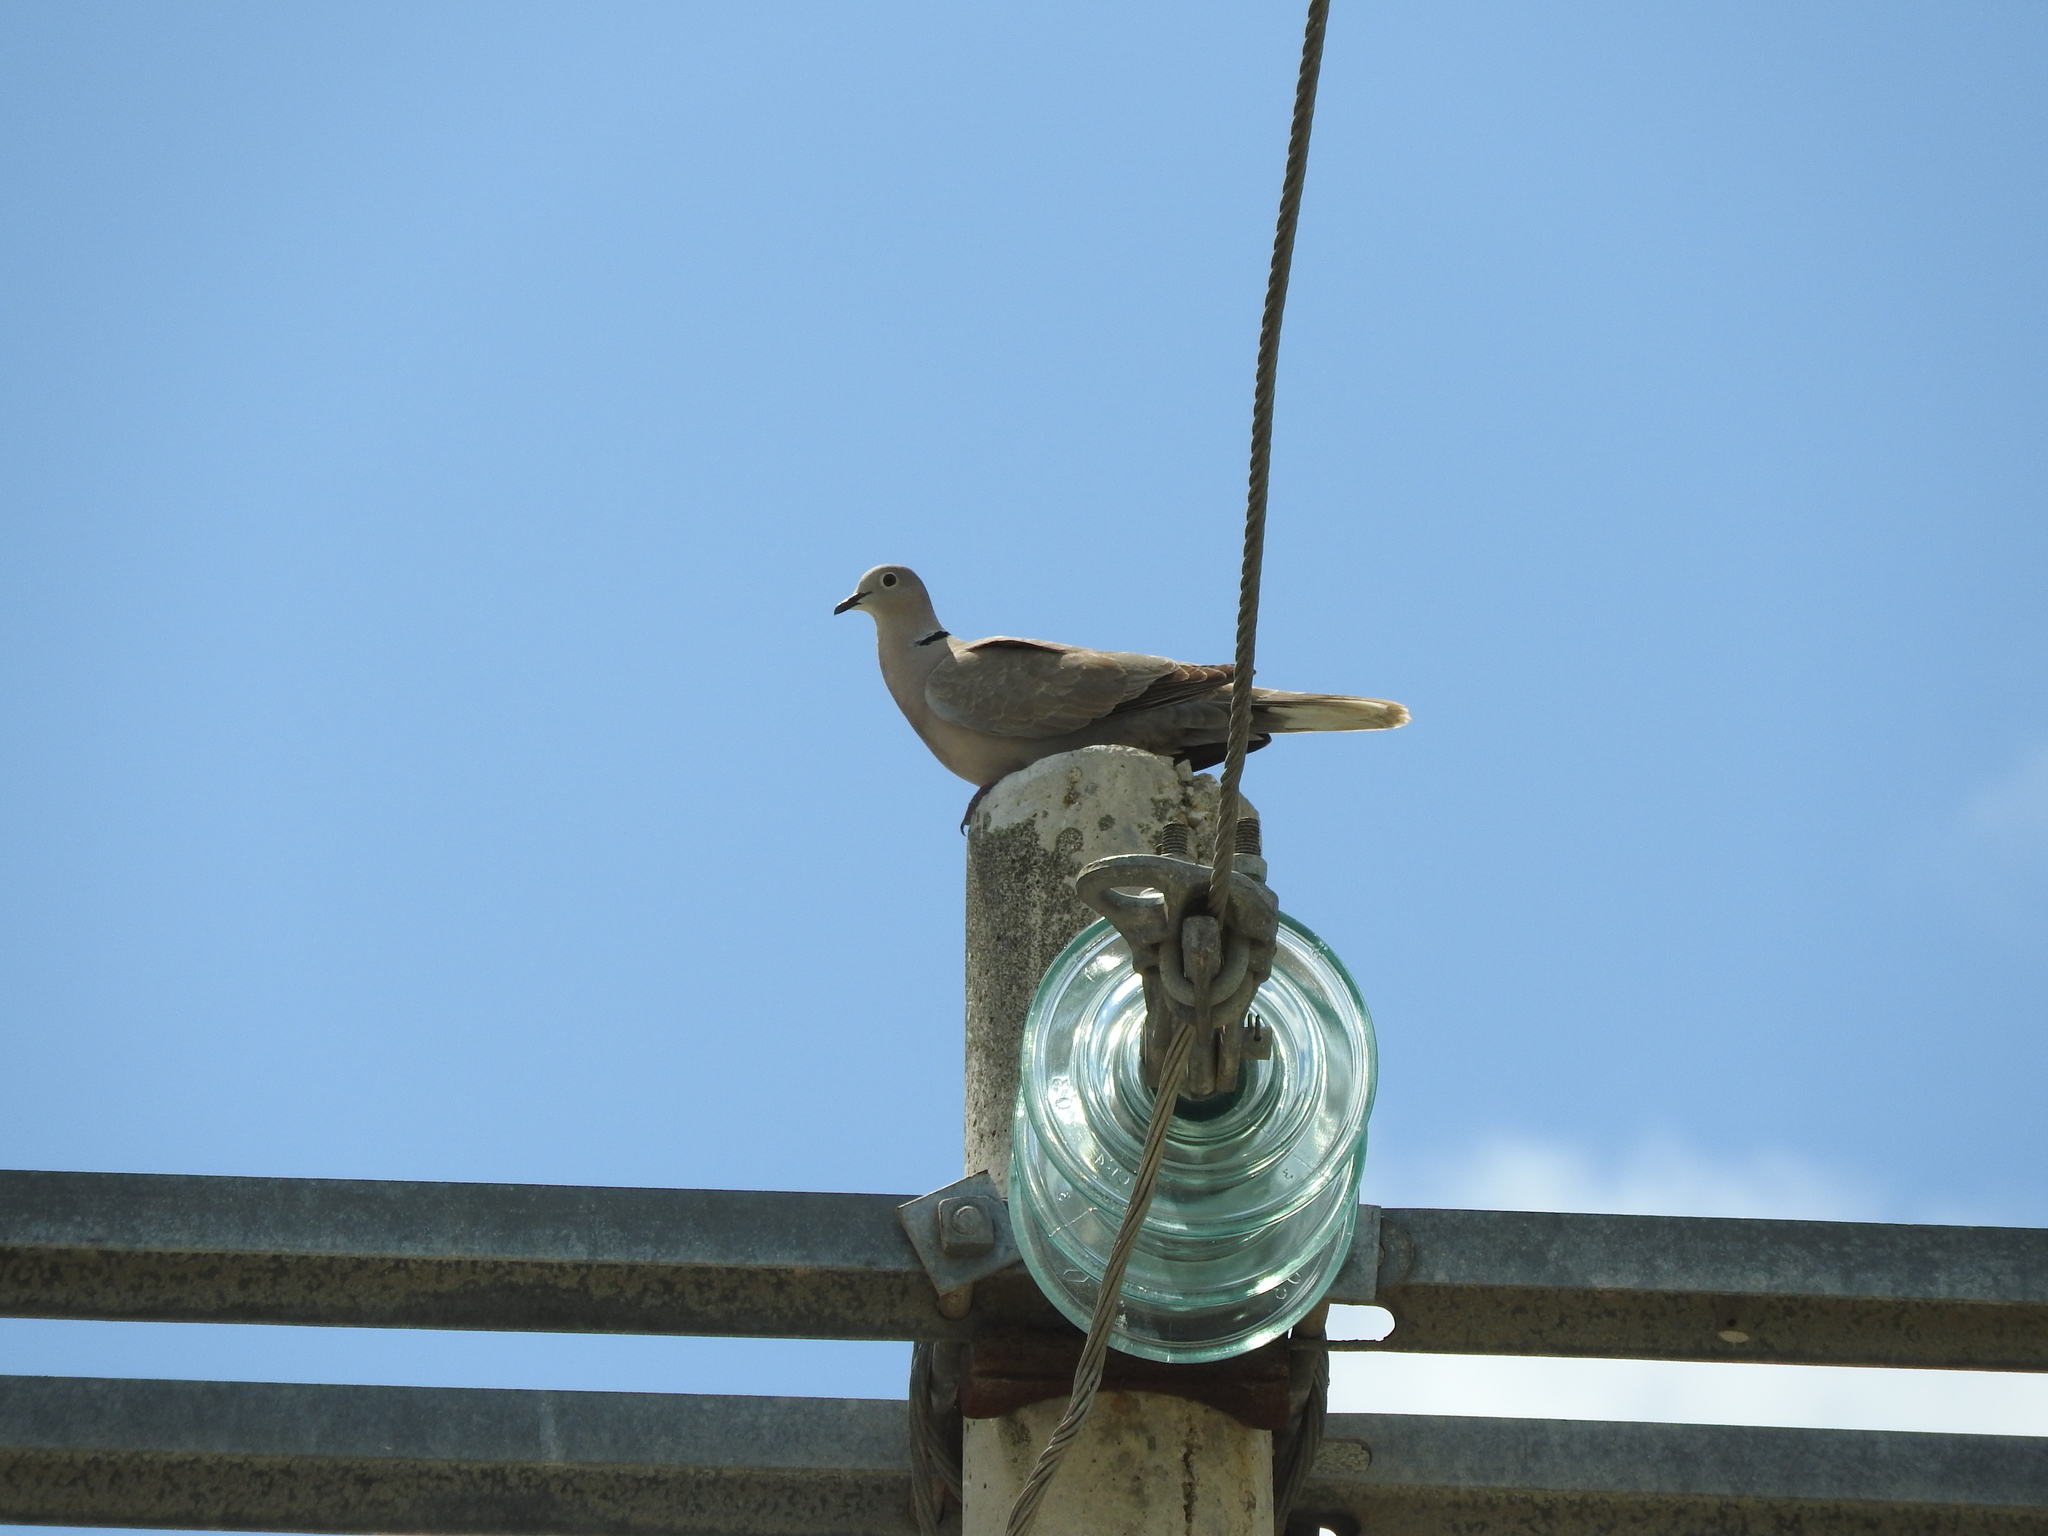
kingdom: Animalia
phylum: Chordata
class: Aves
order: Columbiformes
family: Columbidae
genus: Streptopelia
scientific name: Streptopelia decaocto
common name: Eurasian collared dove
